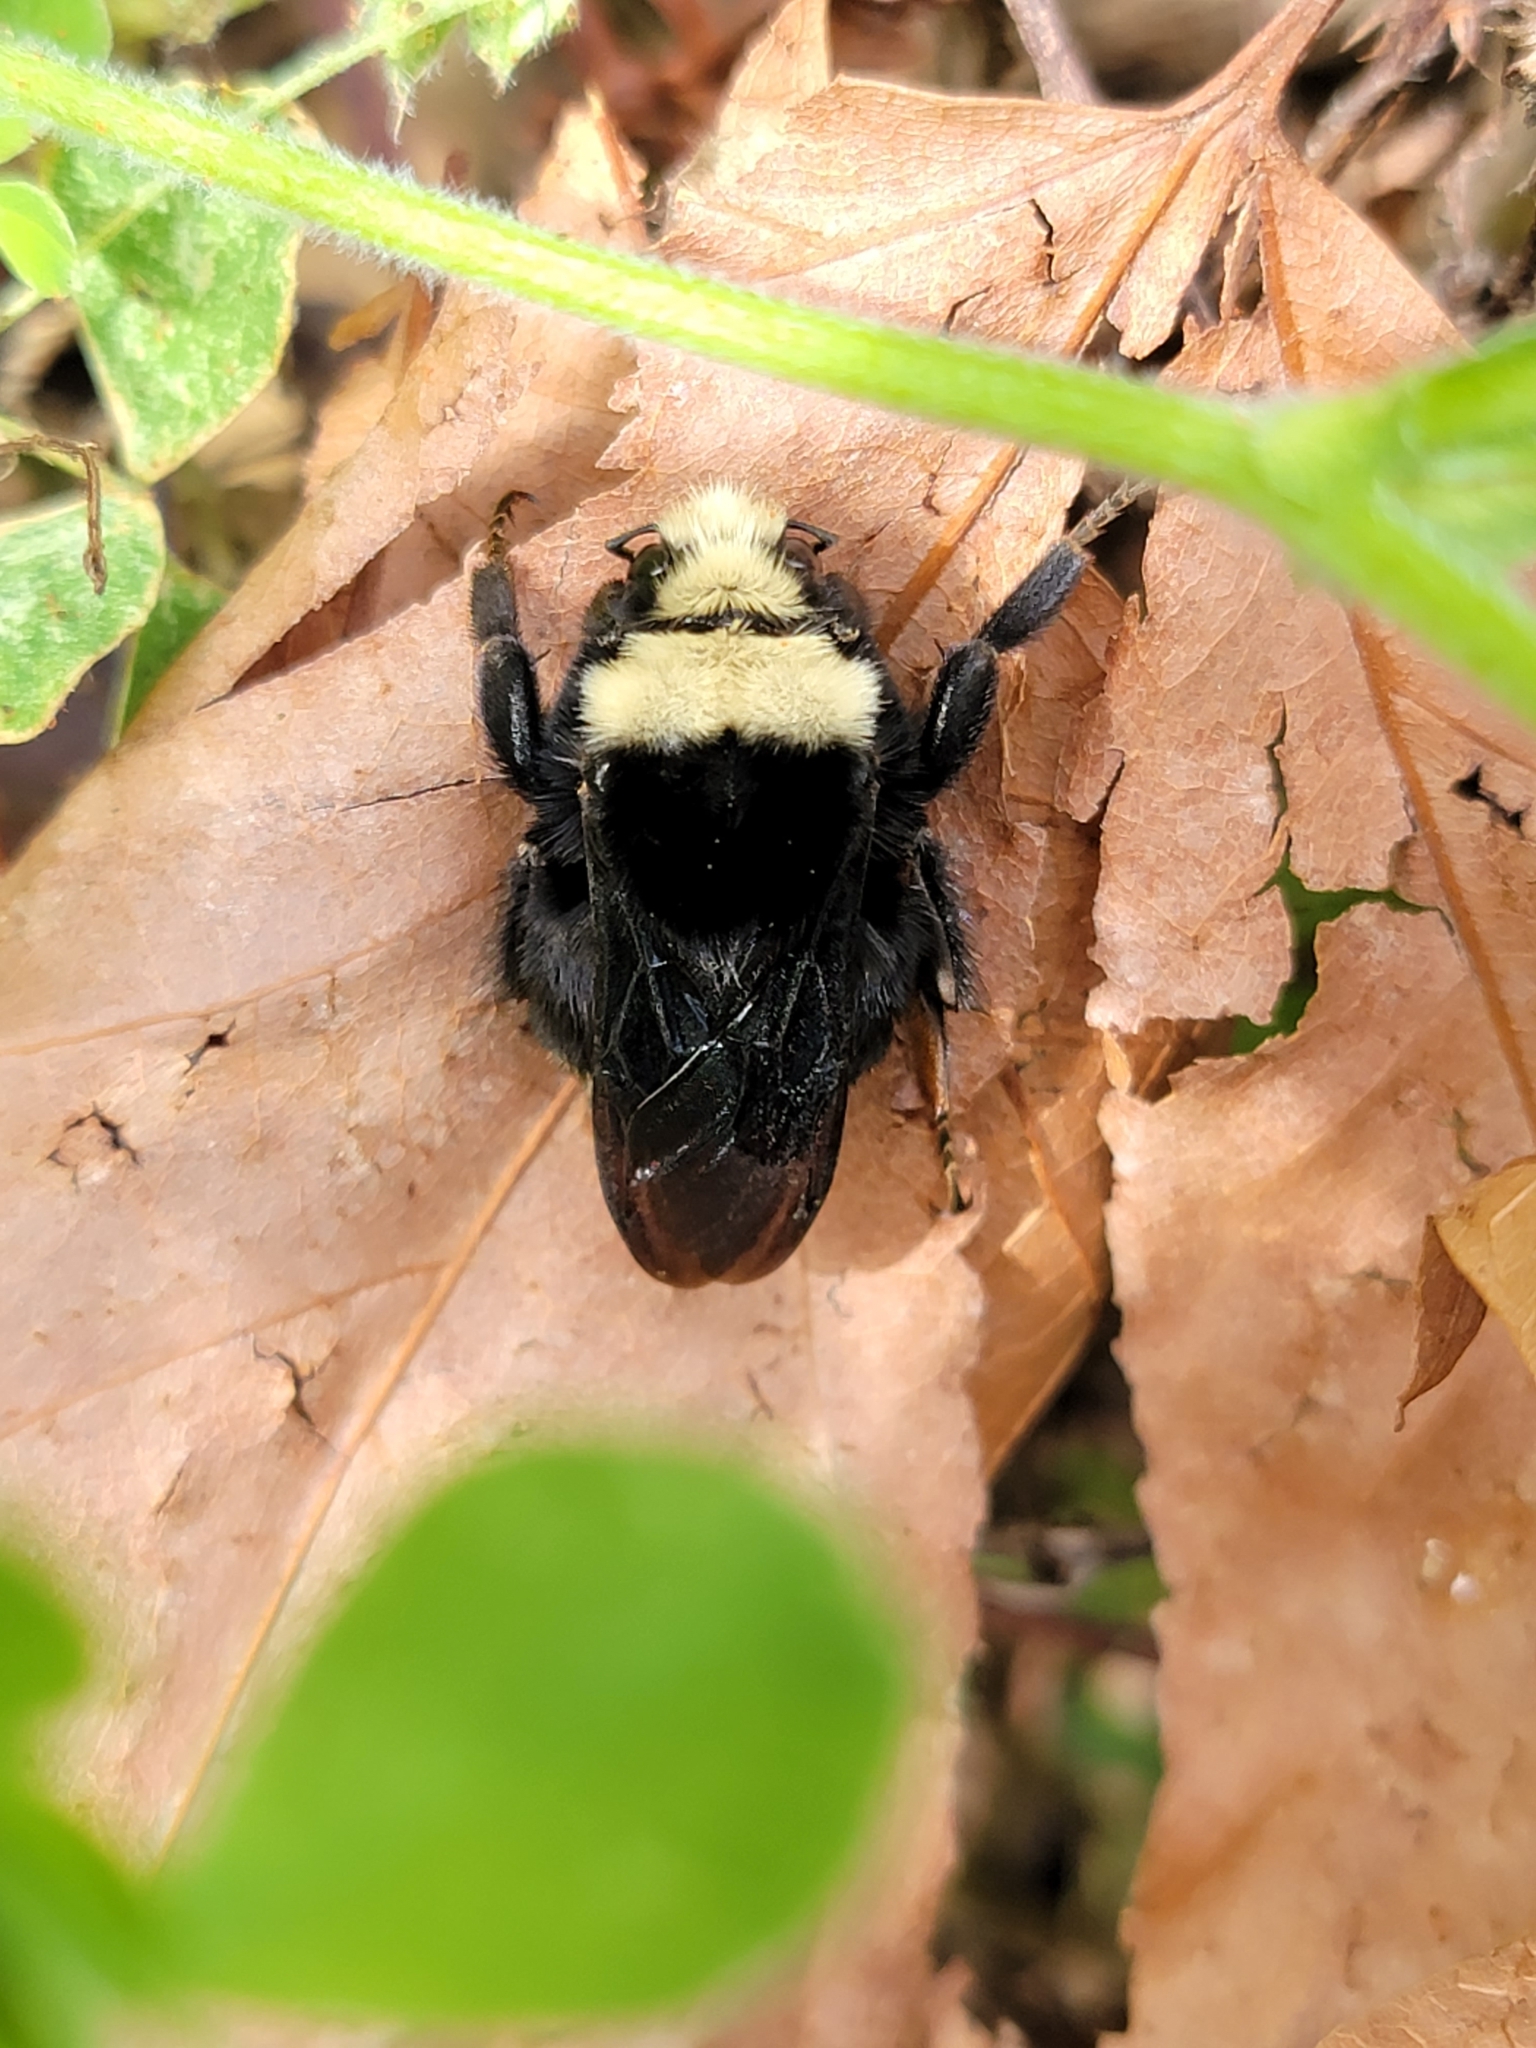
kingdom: Animalia
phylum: Arthropoda
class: Insecta
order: Hymenoptera
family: Apidae
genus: Bombus
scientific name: Bombus vosnesenskii
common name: Vosnesensky bumble bee
